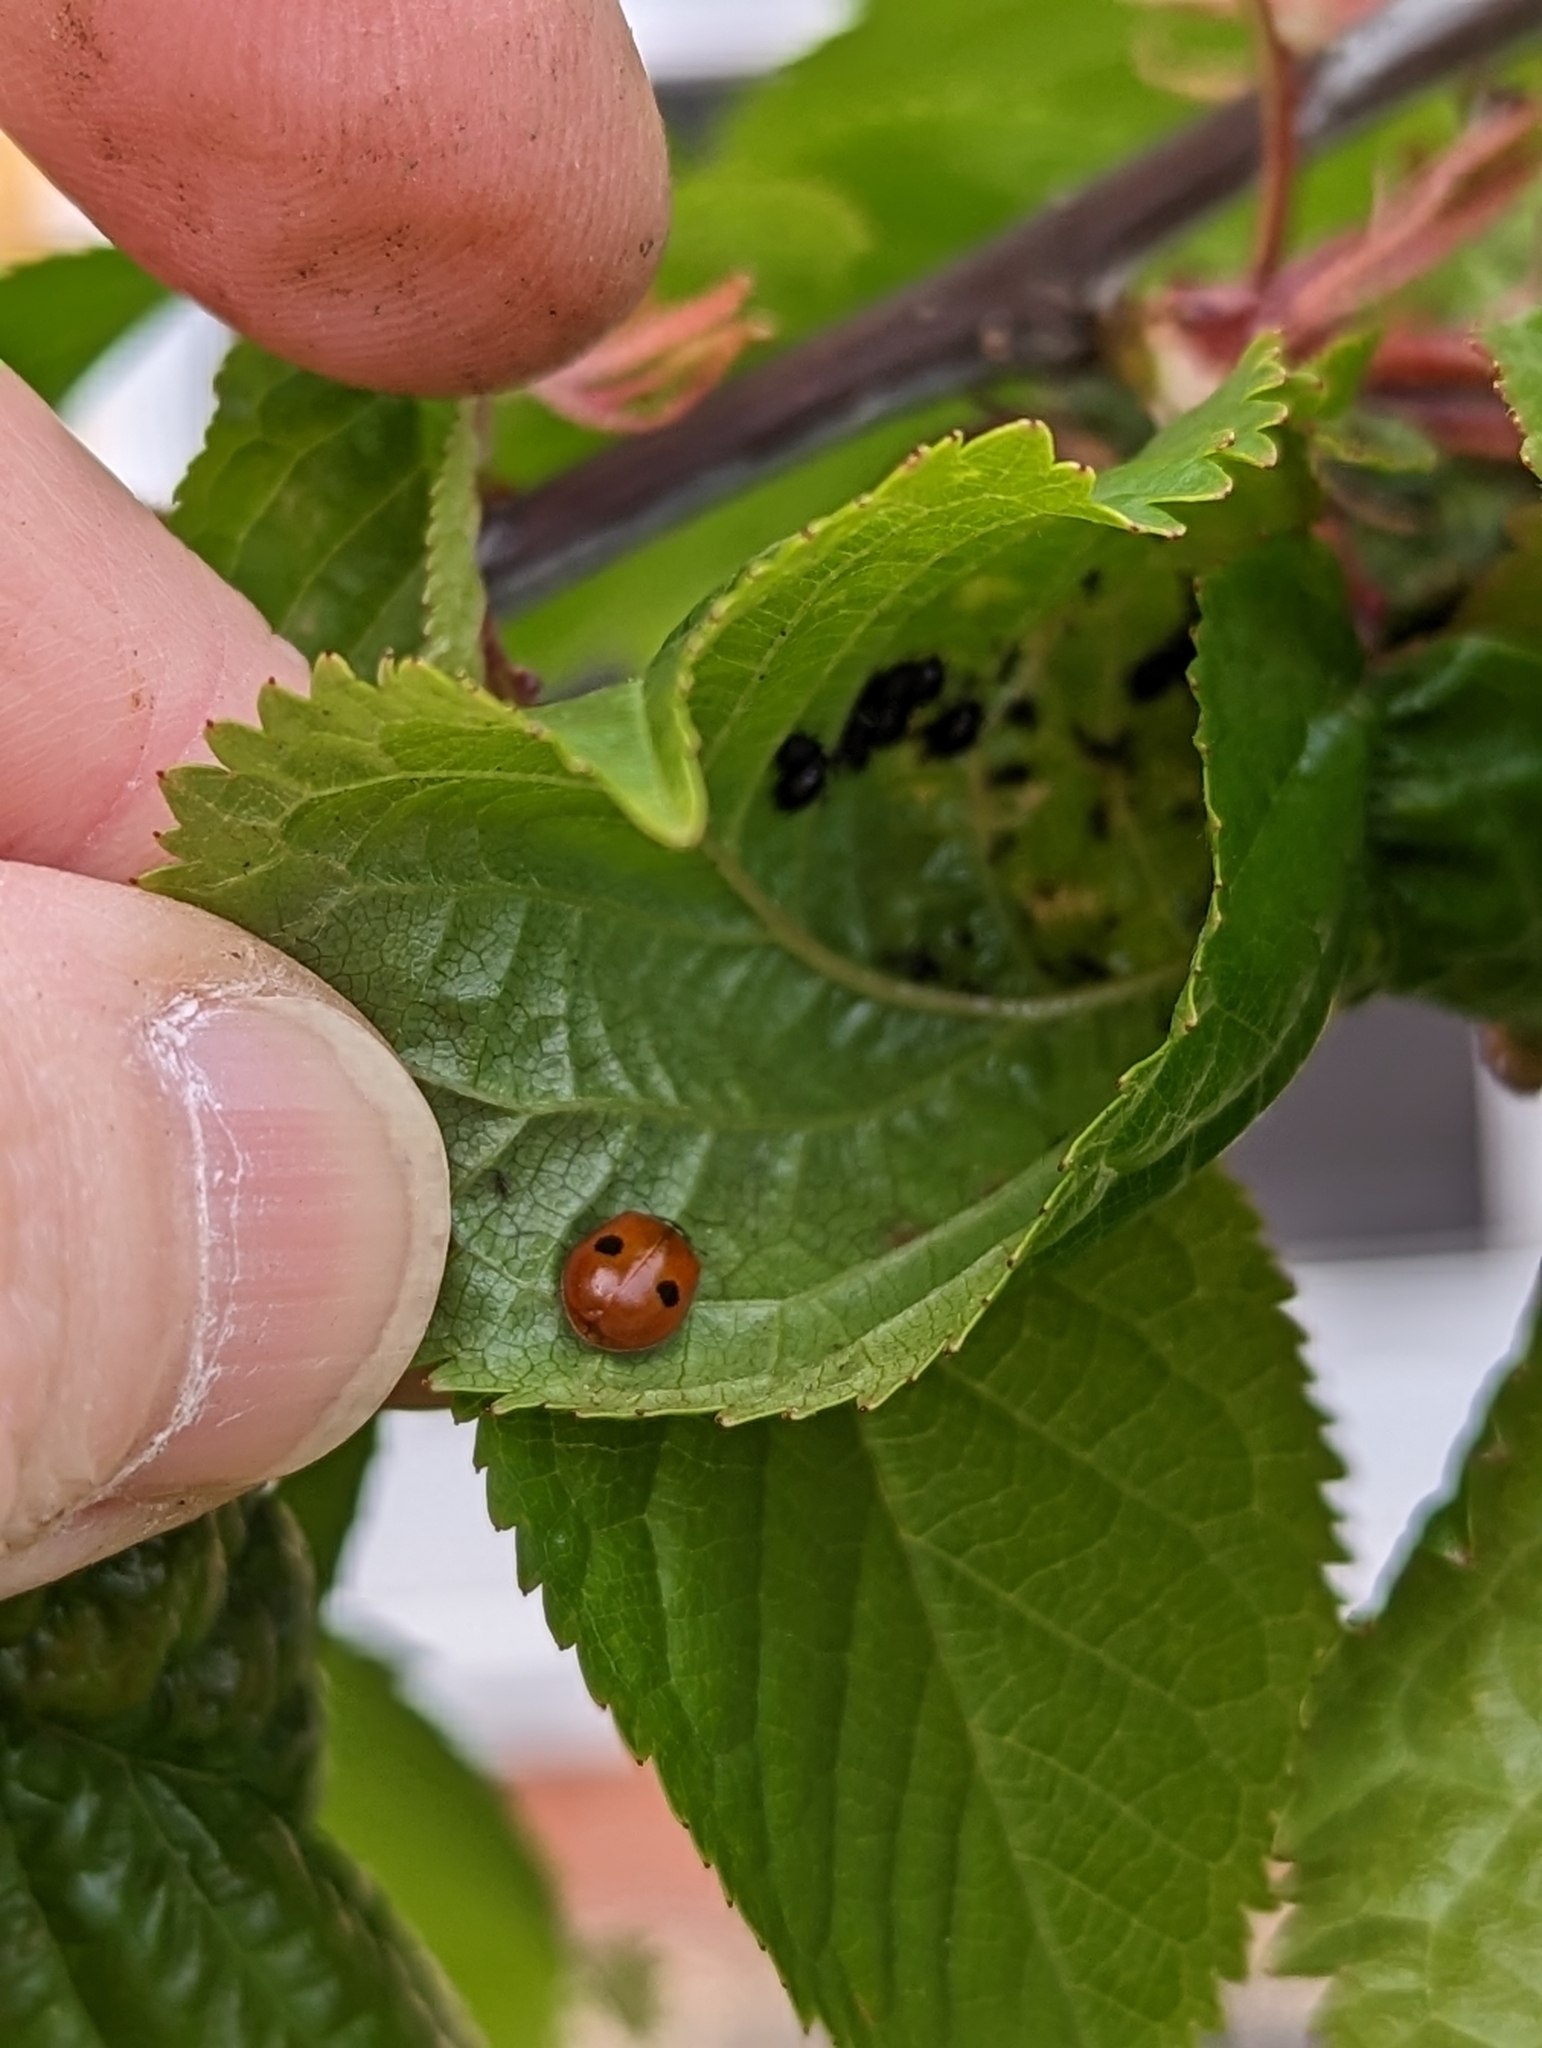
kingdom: Animalia
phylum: Arthropoda
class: Insecta
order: Coleoptera
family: Coccinellidae
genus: Adalia
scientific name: Adalia bipunctata
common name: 2-spot ladybird
